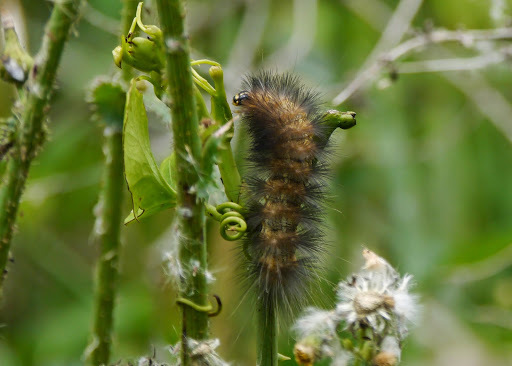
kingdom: Animalia
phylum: Arthropoda
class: Insecta
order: Lepidoptera
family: Erebidae
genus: Estigmene
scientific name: Estigmene acrea
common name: Salt marsh moth
